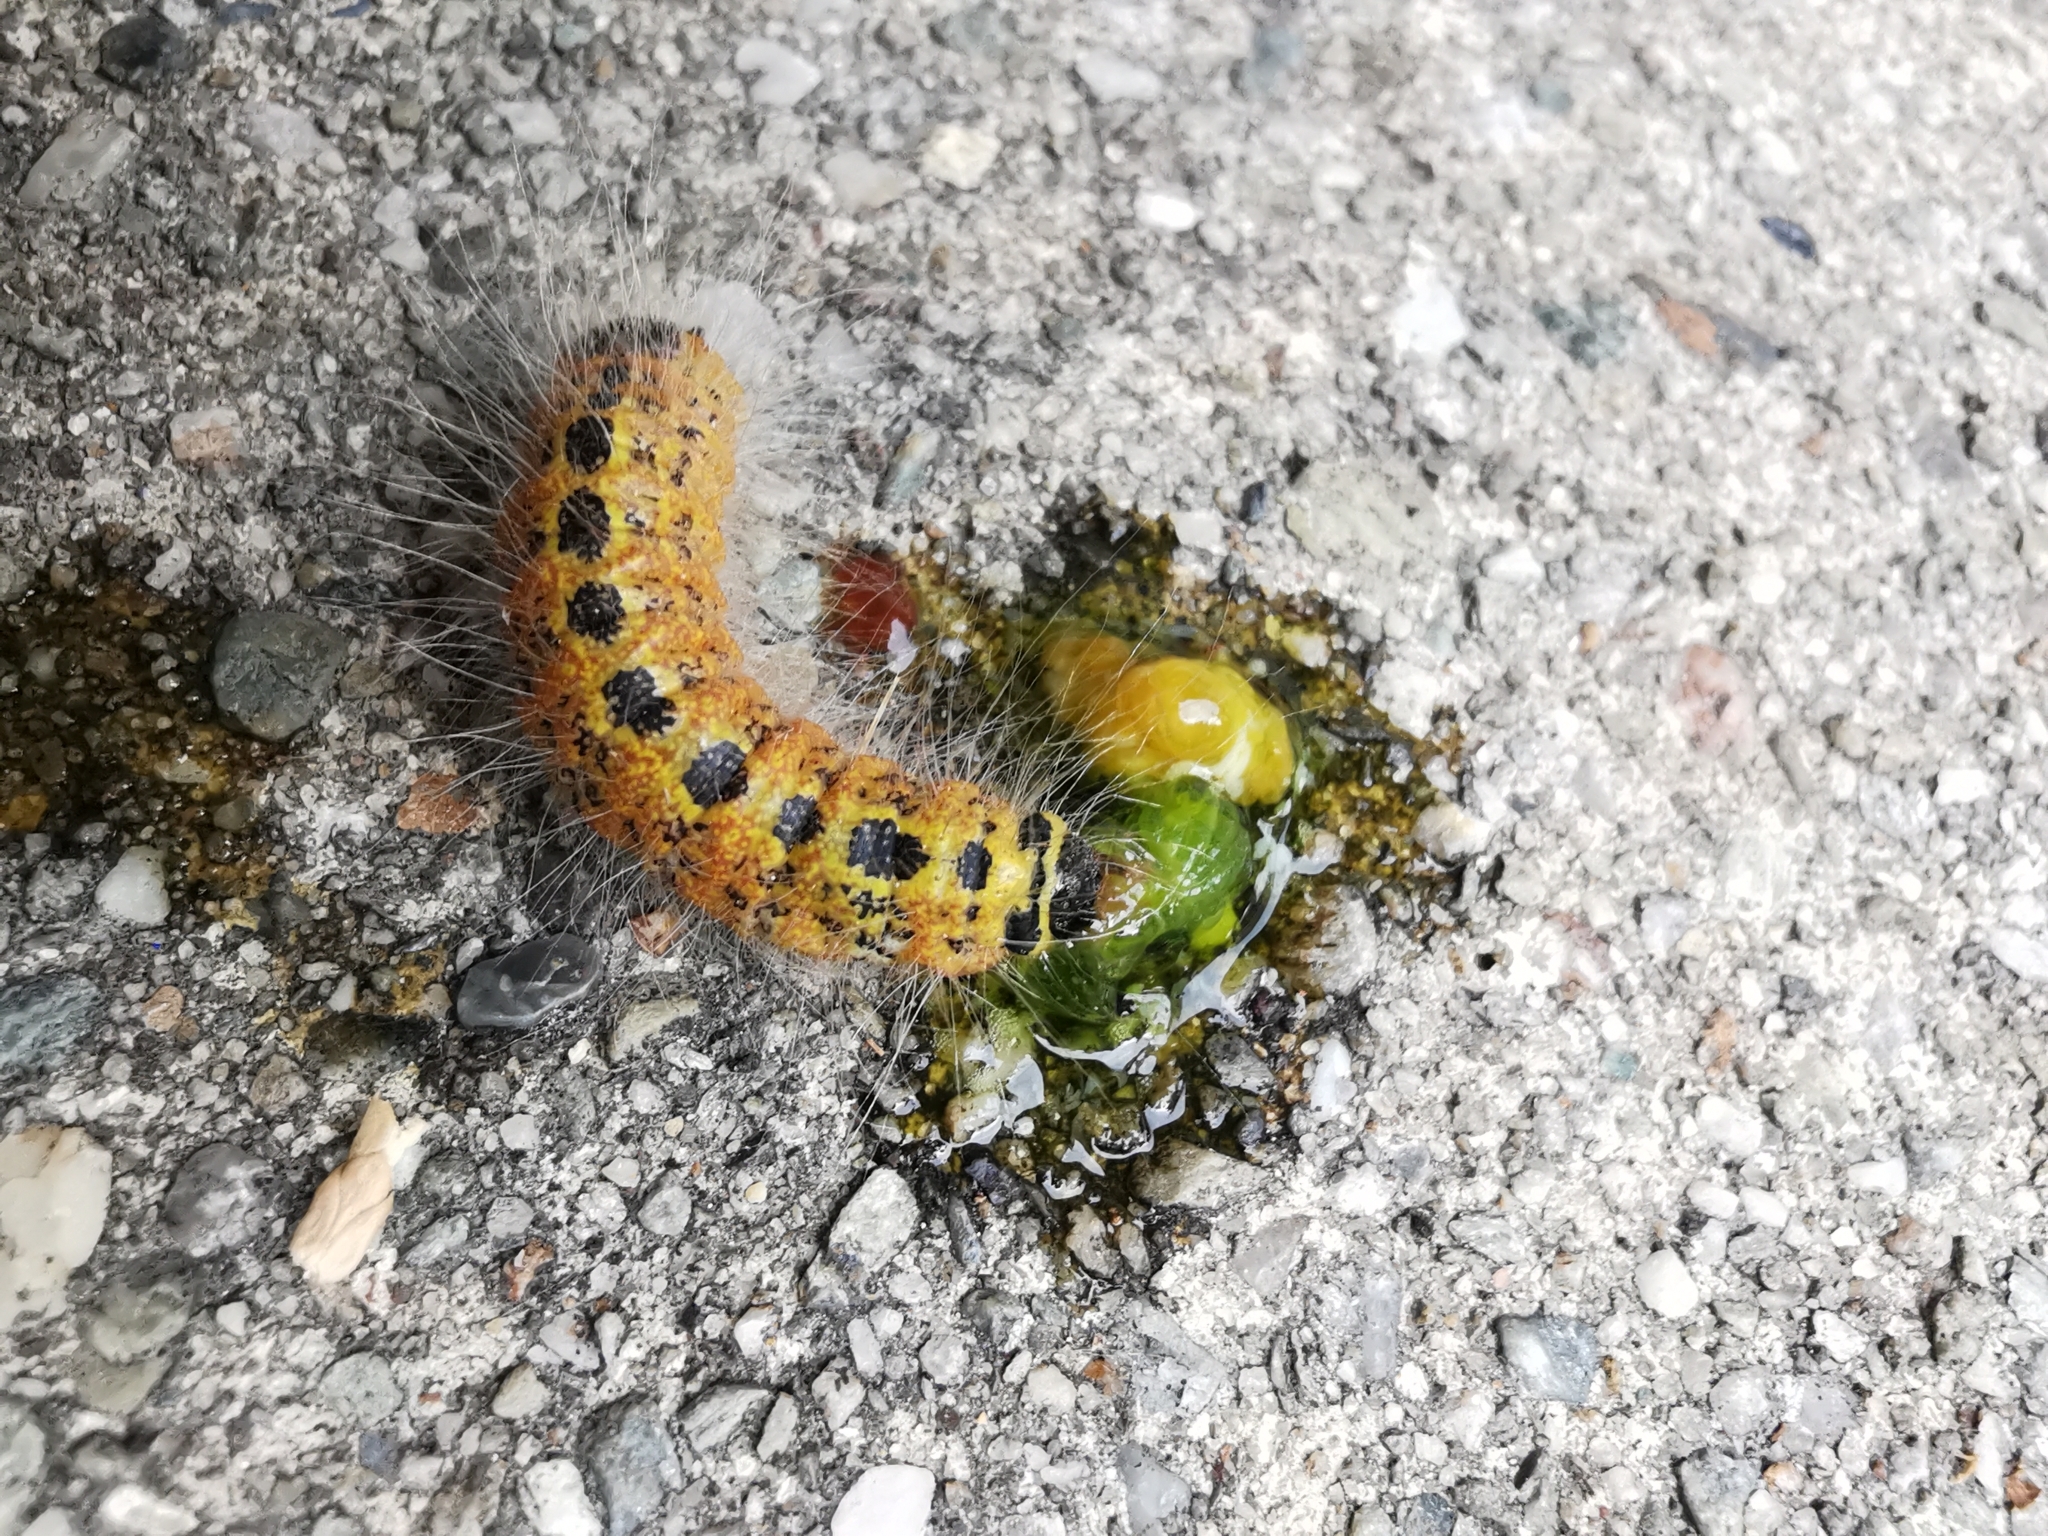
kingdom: Animalia
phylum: Arthropoda
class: Insecta
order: Lepidoptera
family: Notodontidae
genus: Phalera
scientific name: Phalera bucephala
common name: Buff-tip
